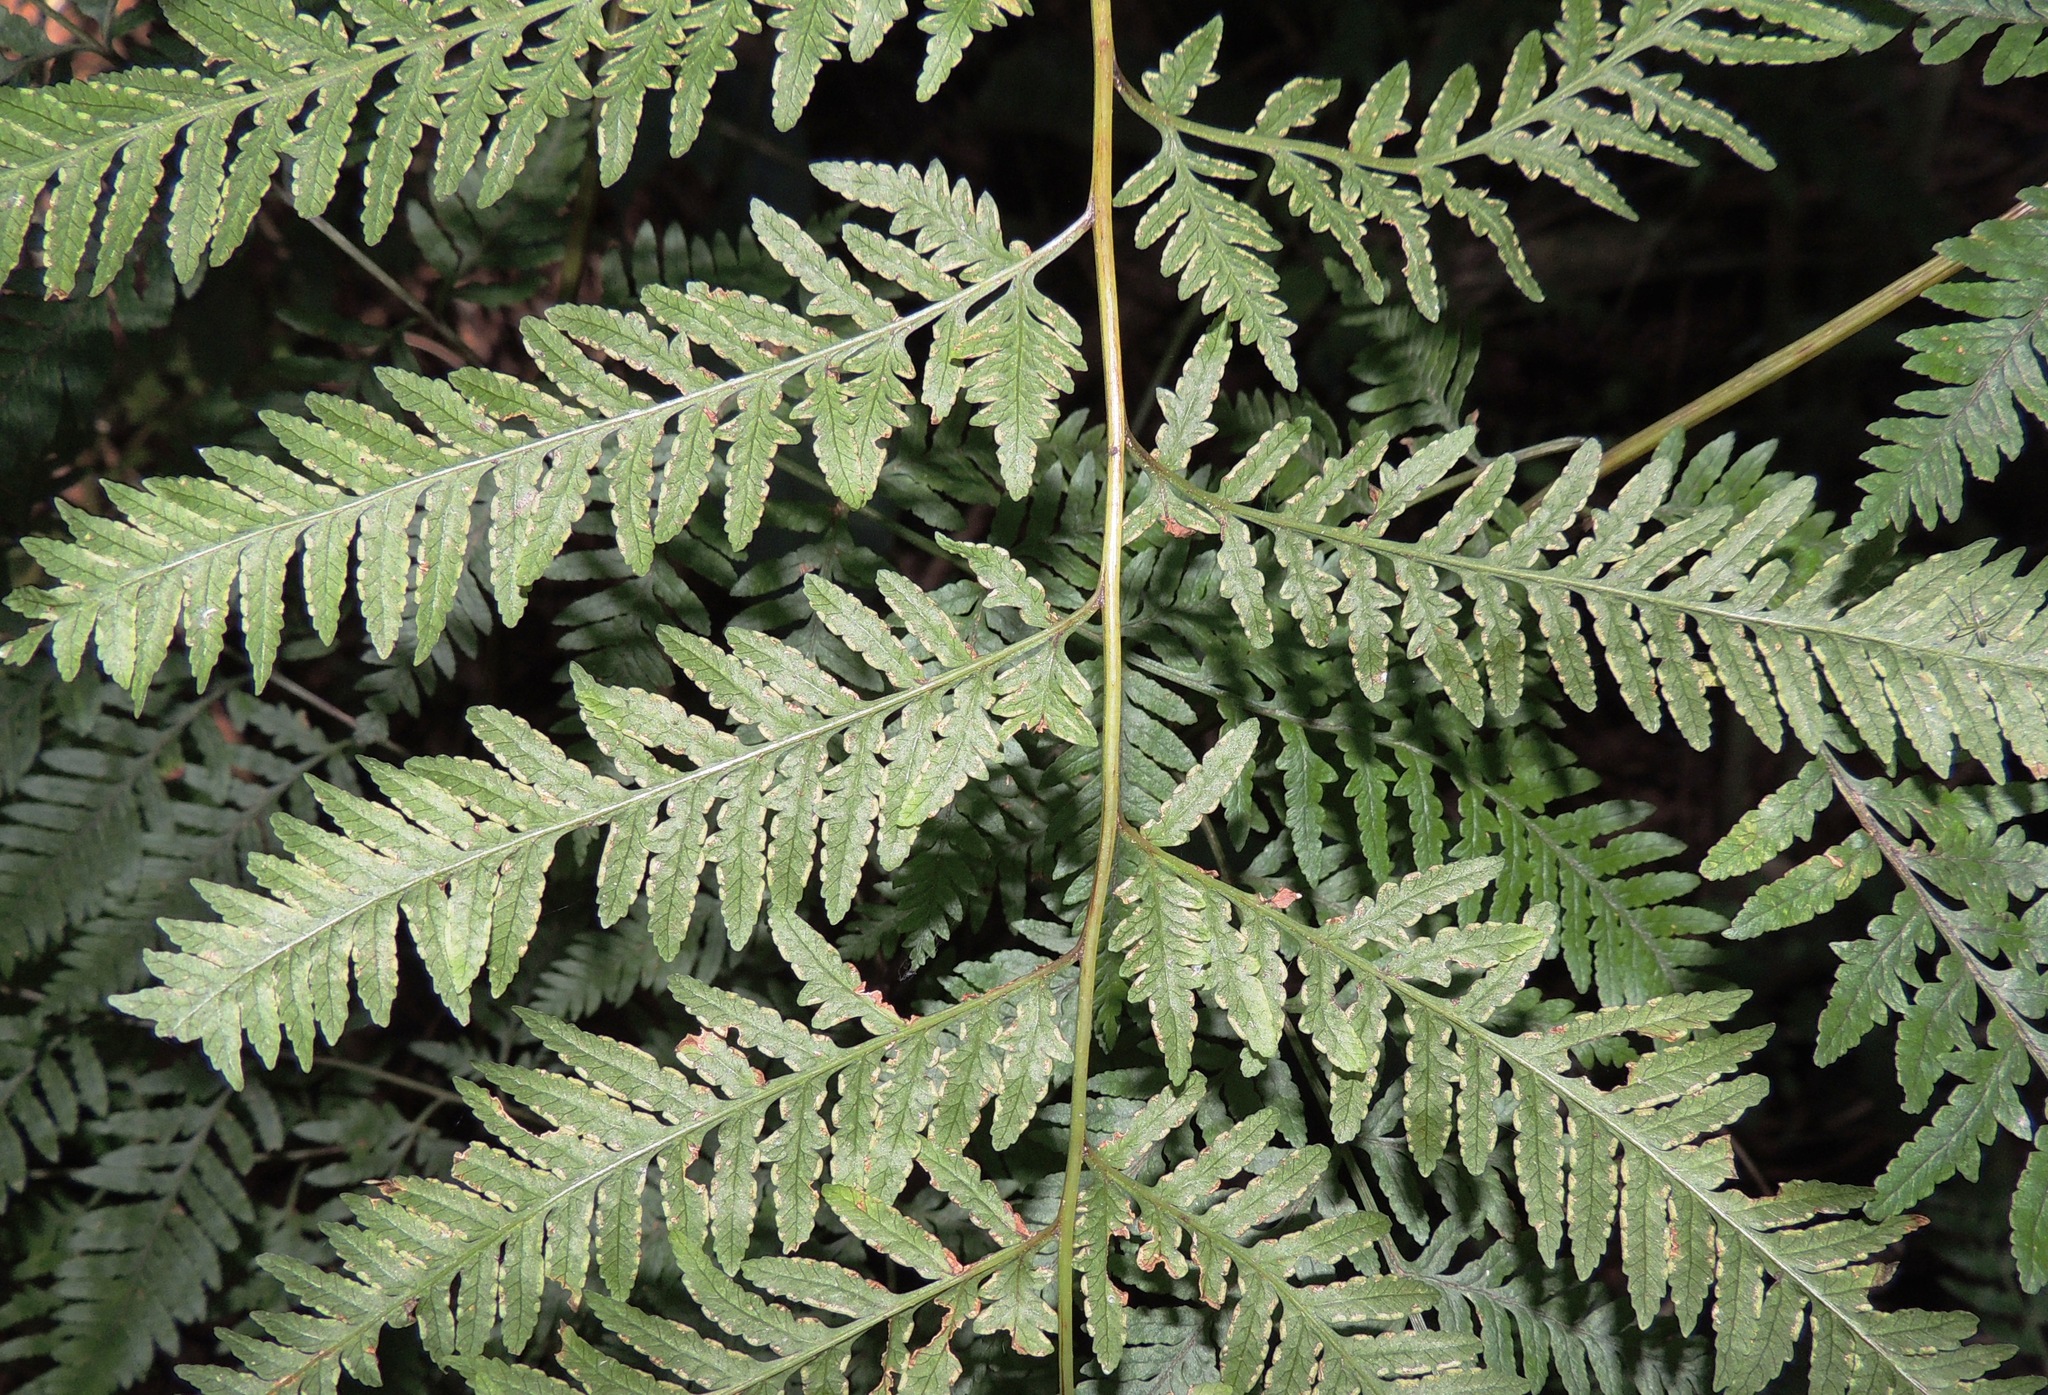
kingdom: Plantae
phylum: Tracheophyta
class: Polypodiopsida
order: Polypodiales
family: Pteridaceae
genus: Pteris
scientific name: Pteris tremula
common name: Australian brake
